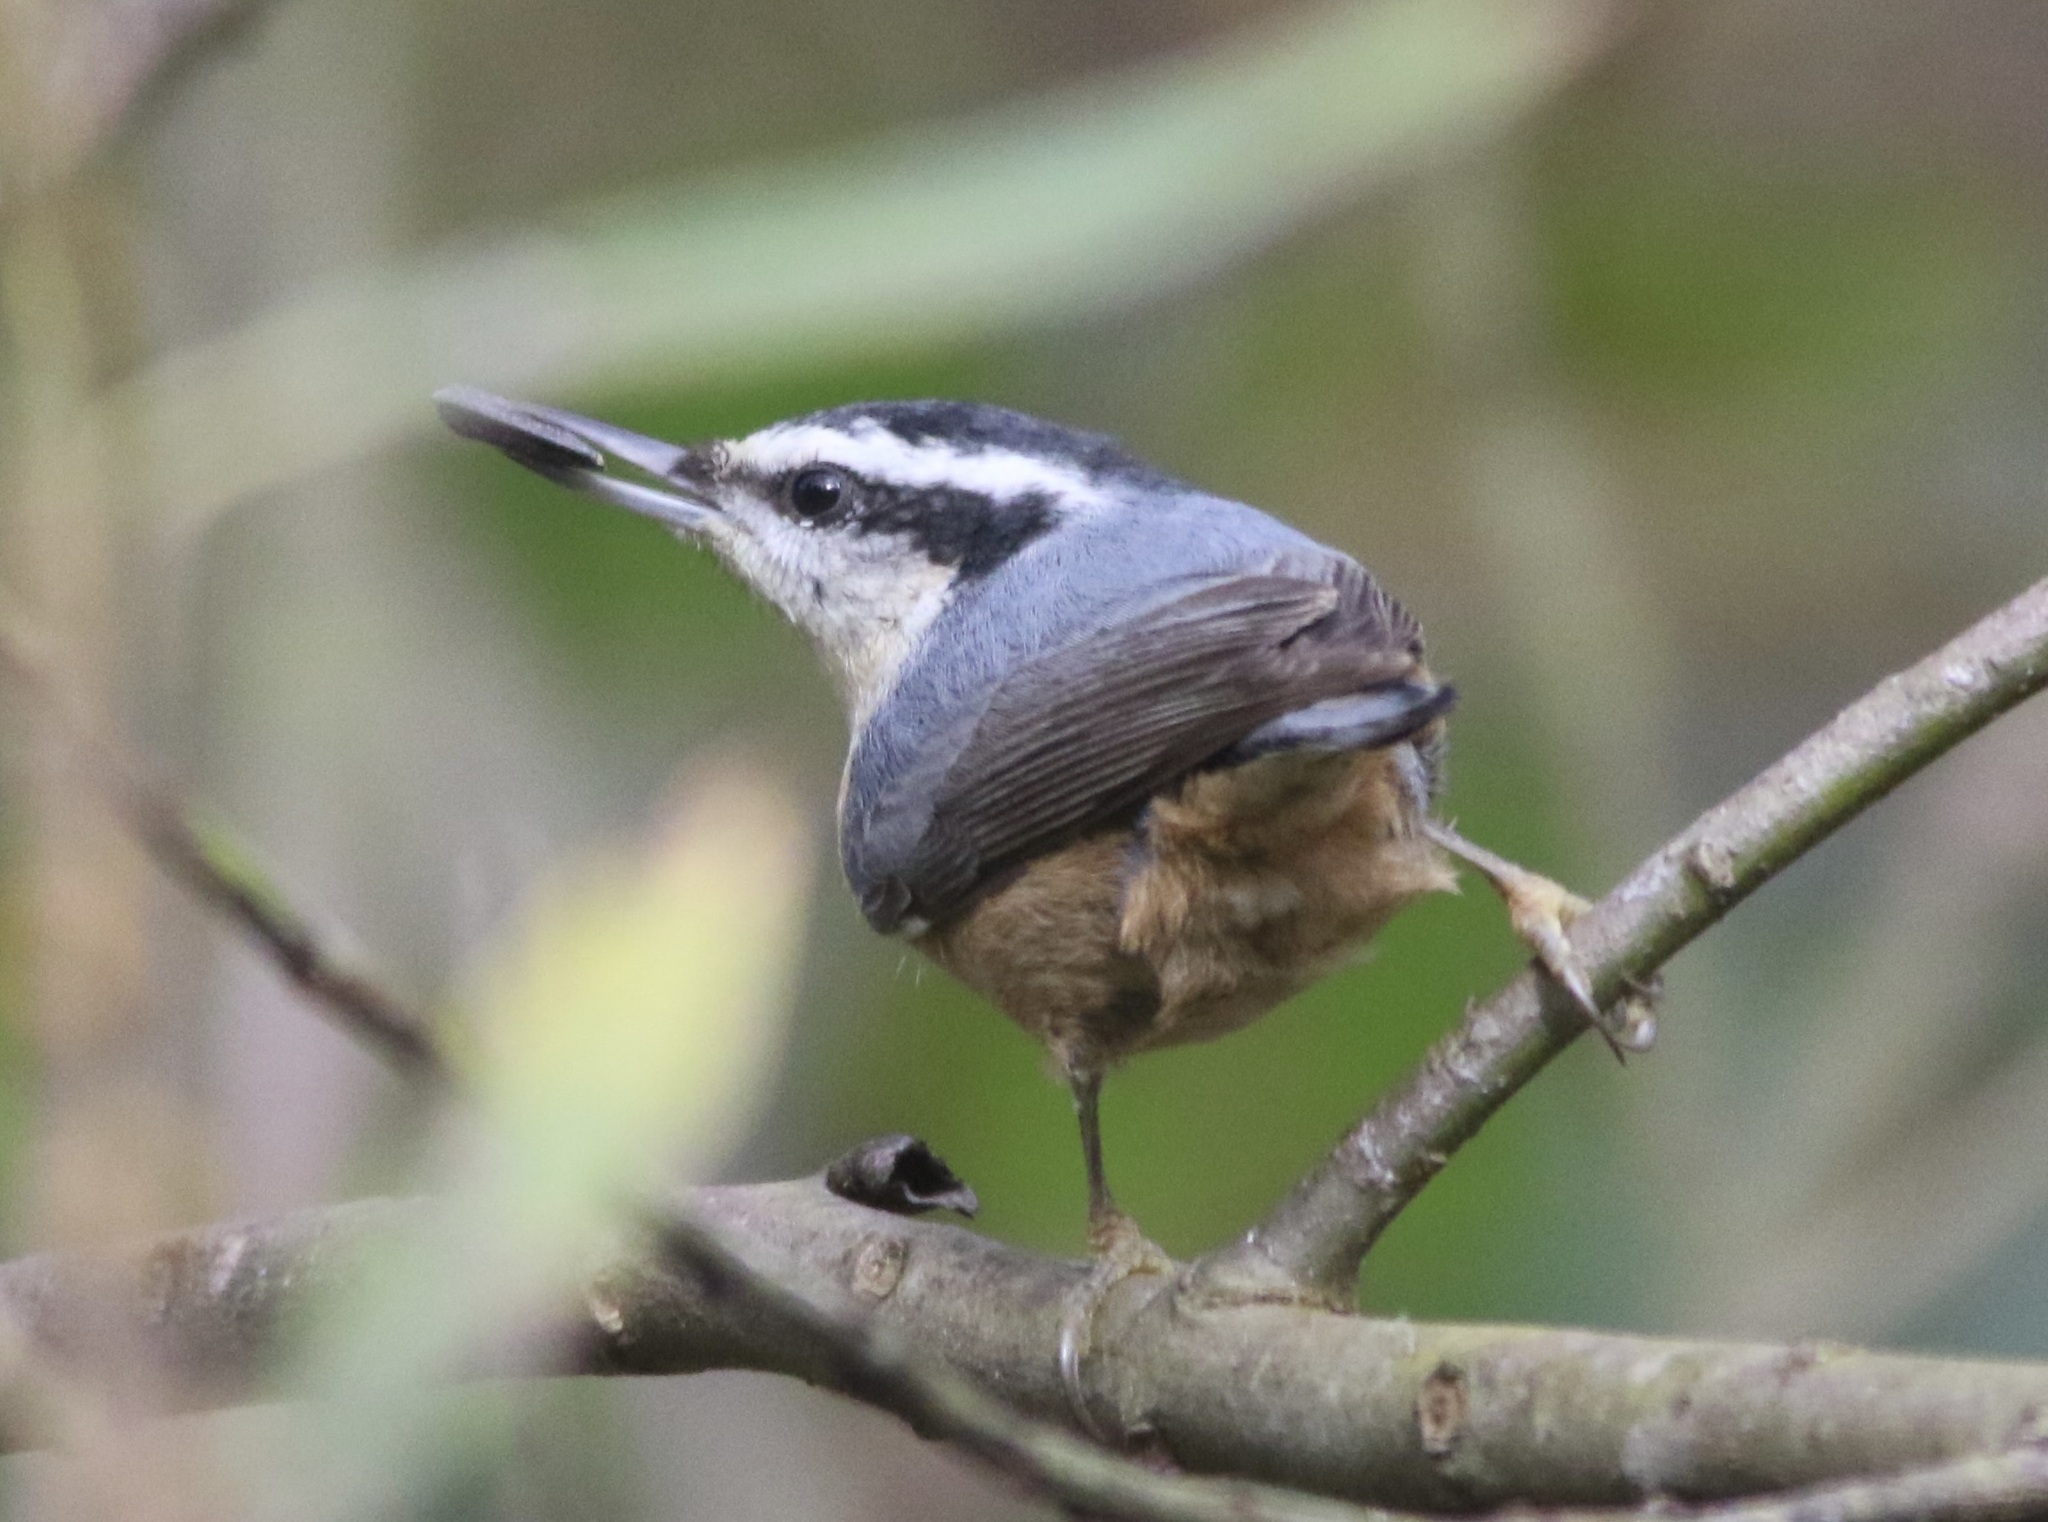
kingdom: Animalia
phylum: Chordata
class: Aves
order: Passeriformes
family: Sittidae
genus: Sitta
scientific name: Sitta canadensis
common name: Red-breasted nuthatch
